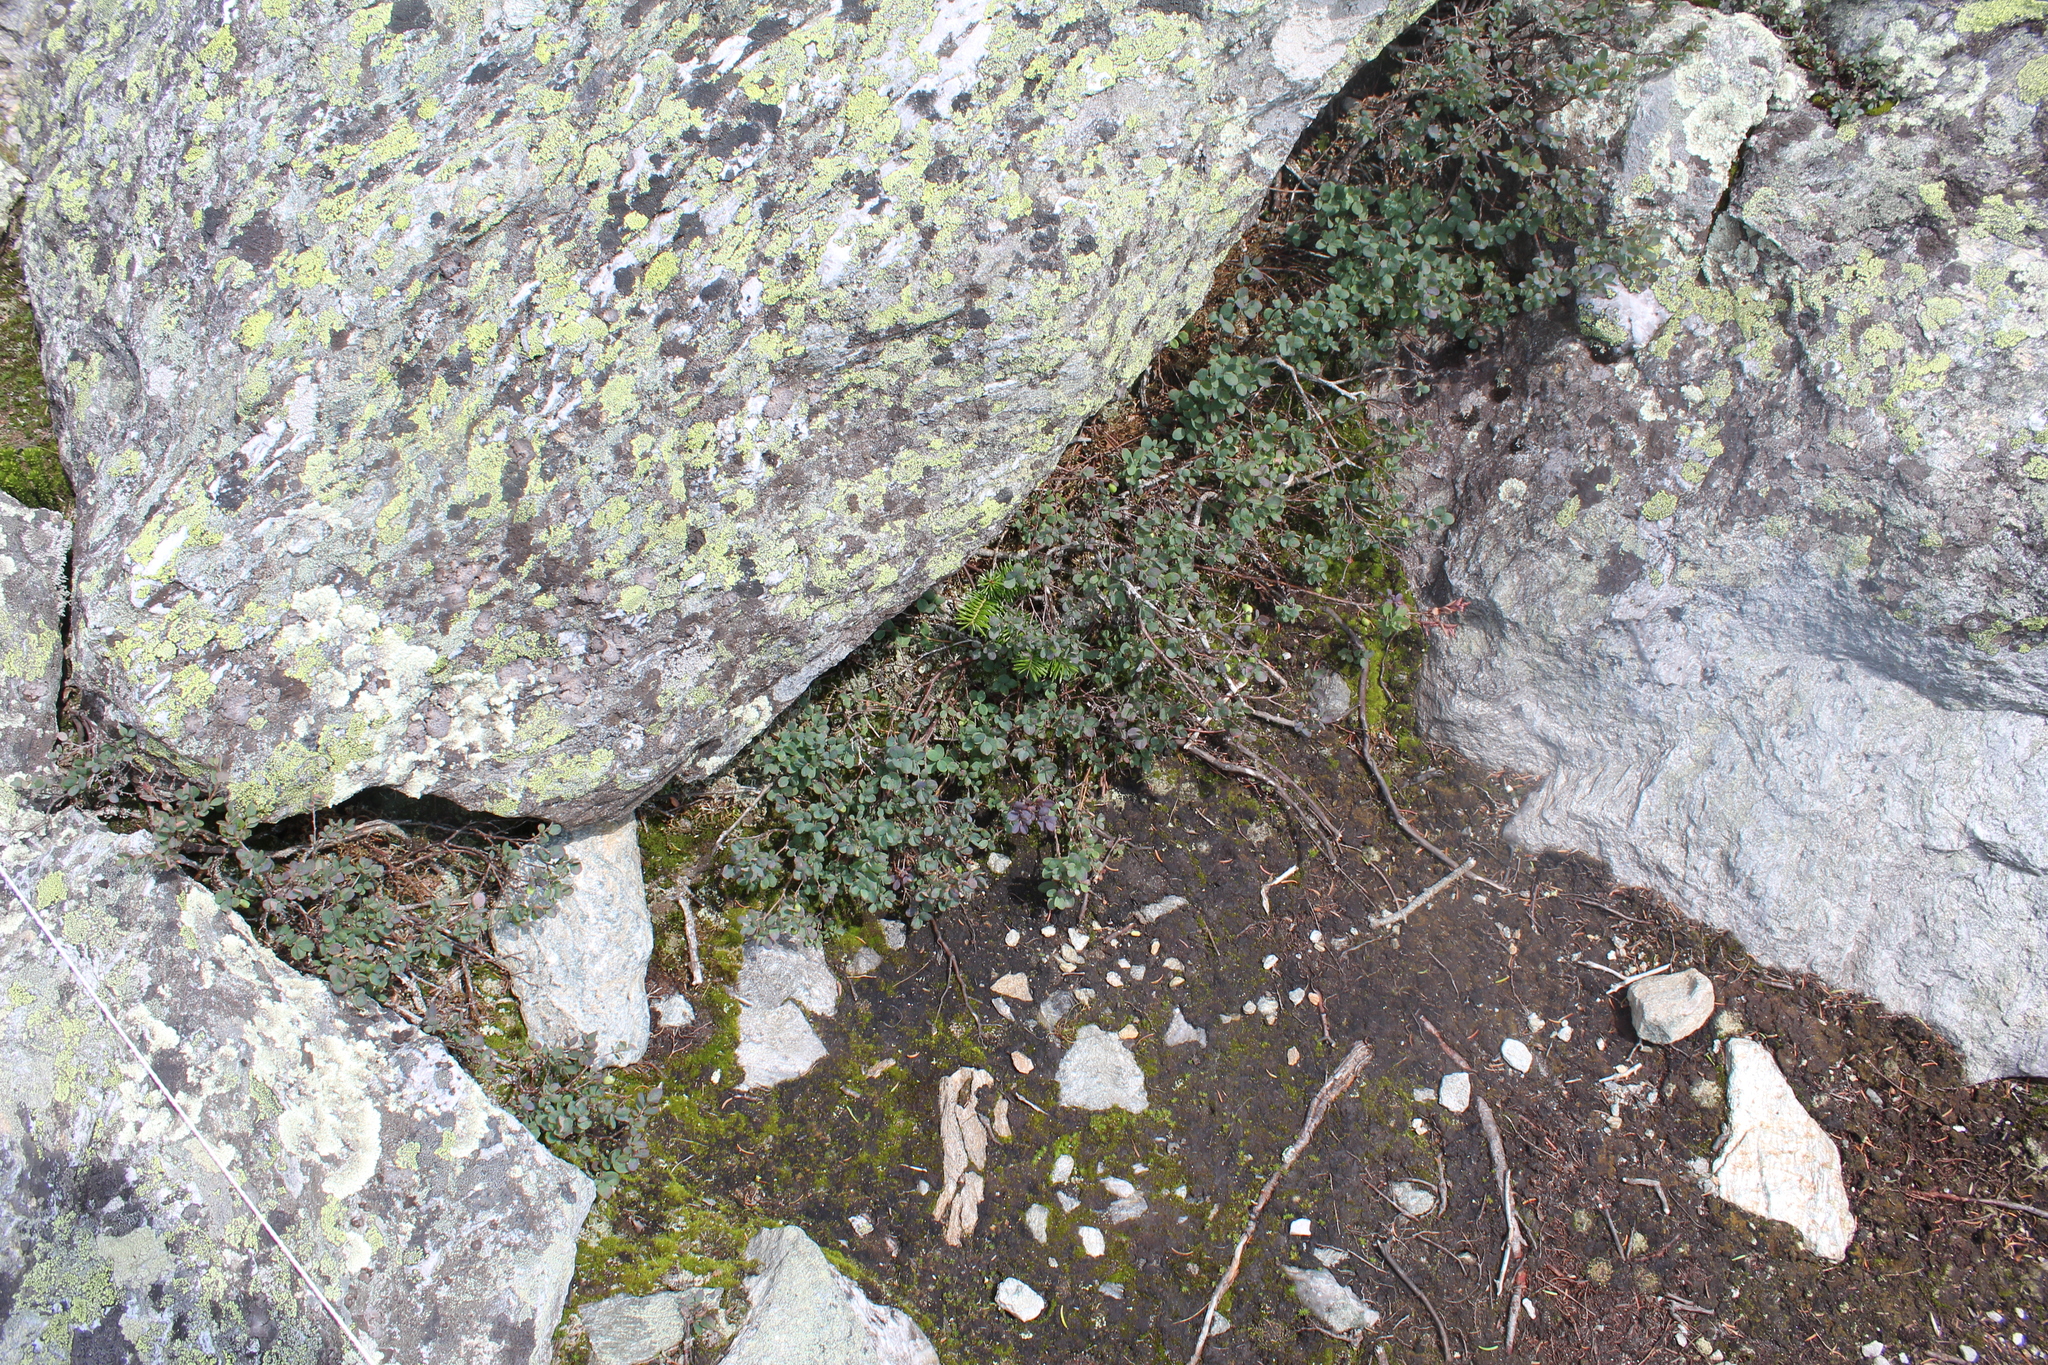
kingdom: Plantae
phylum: Tracheophyta
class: Magnoliopsida
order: Ericales
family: Ericaceae
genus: Vaccinium
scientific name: Vaccinium uliginosum
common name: Bog bilberry
